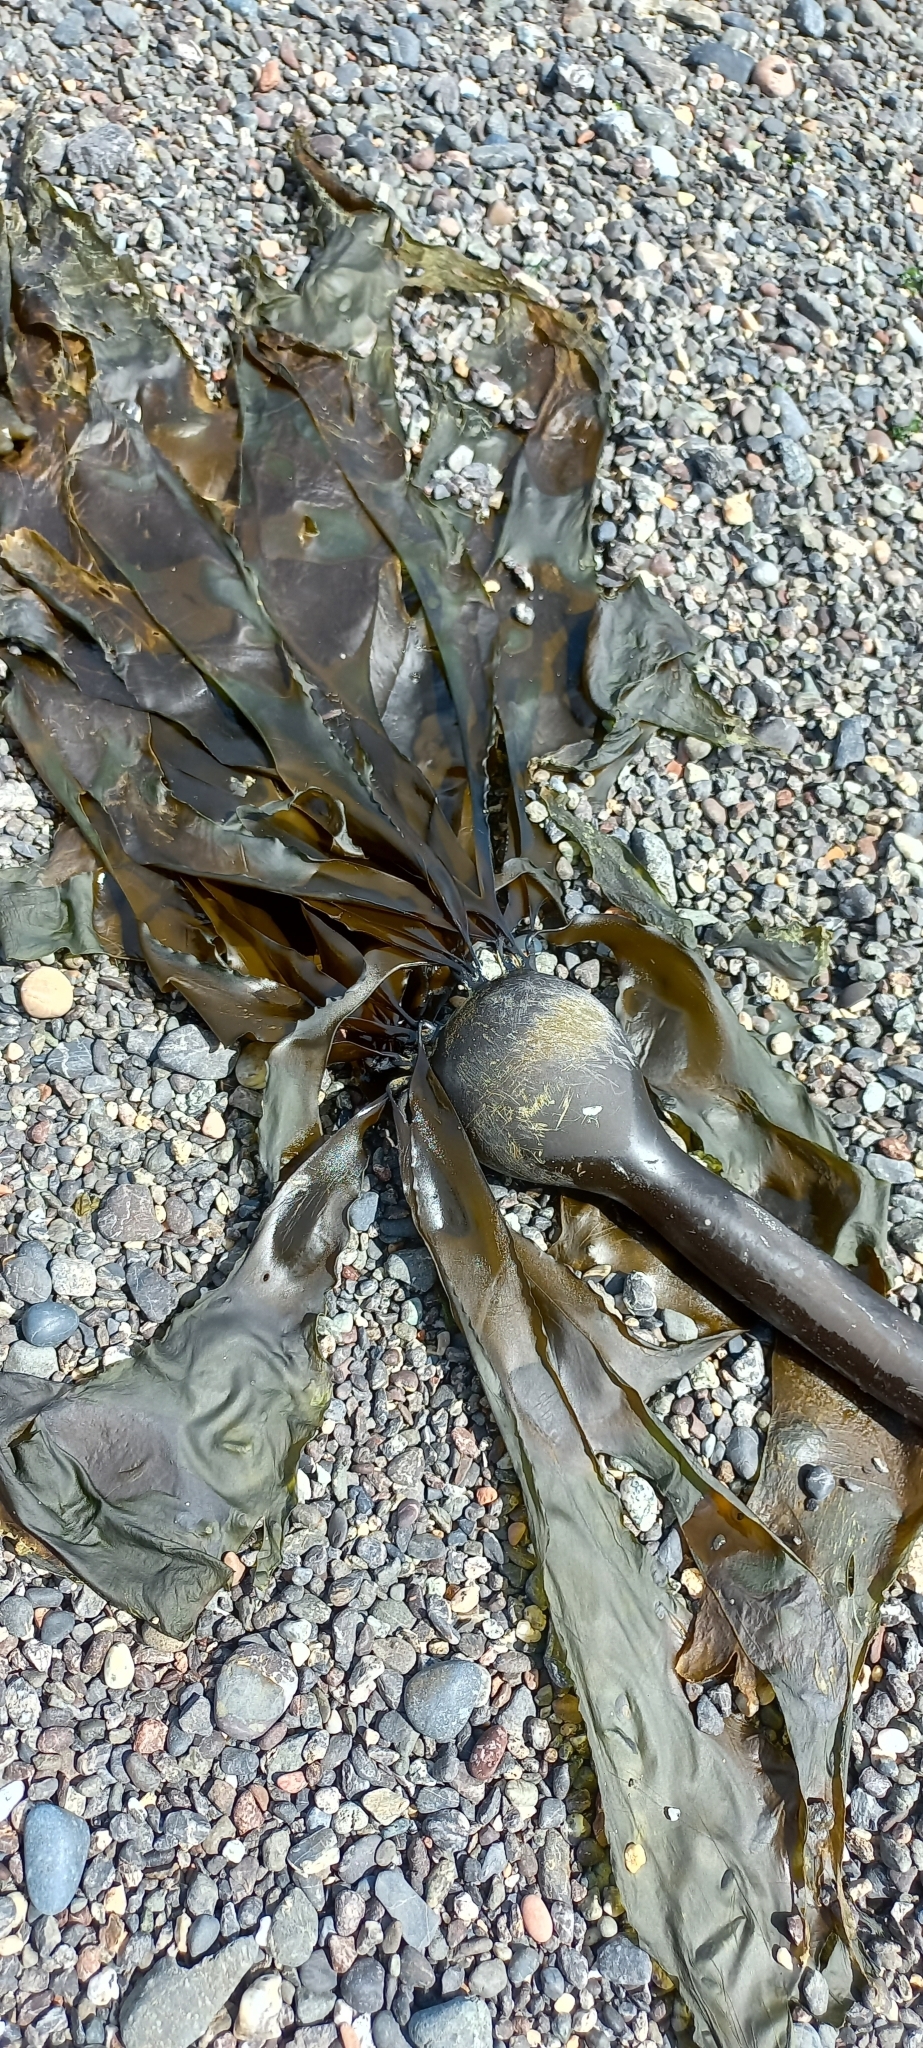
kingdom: Chromista
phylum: Ochrophyta
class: Phaeophyceae
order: Laminariales
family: Laminariaceae
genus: Nereocystis
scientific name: Nereocystis luetkeana
